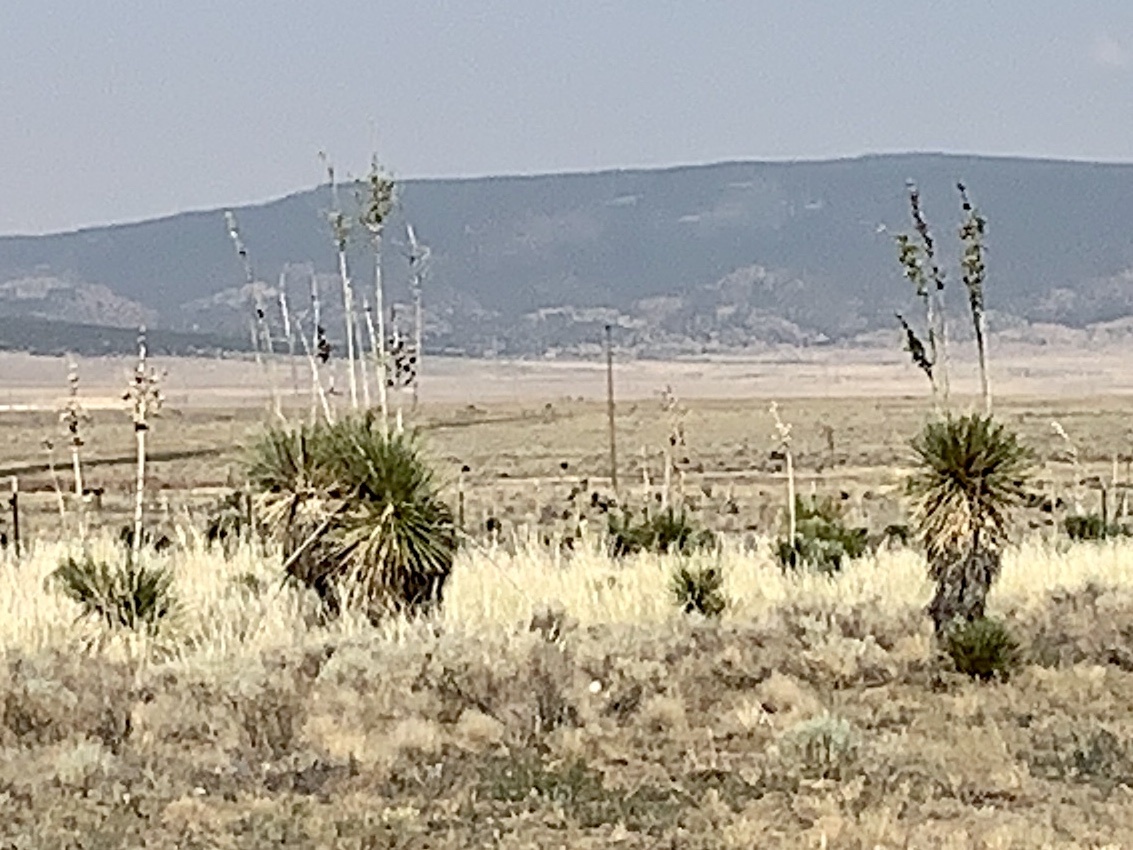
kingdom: Plantae
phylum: Tracheophyta
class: Liliopsida
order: Asparagales
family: Asparagaceae
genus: Yucca
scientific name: Yucca elata
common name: Palmella
